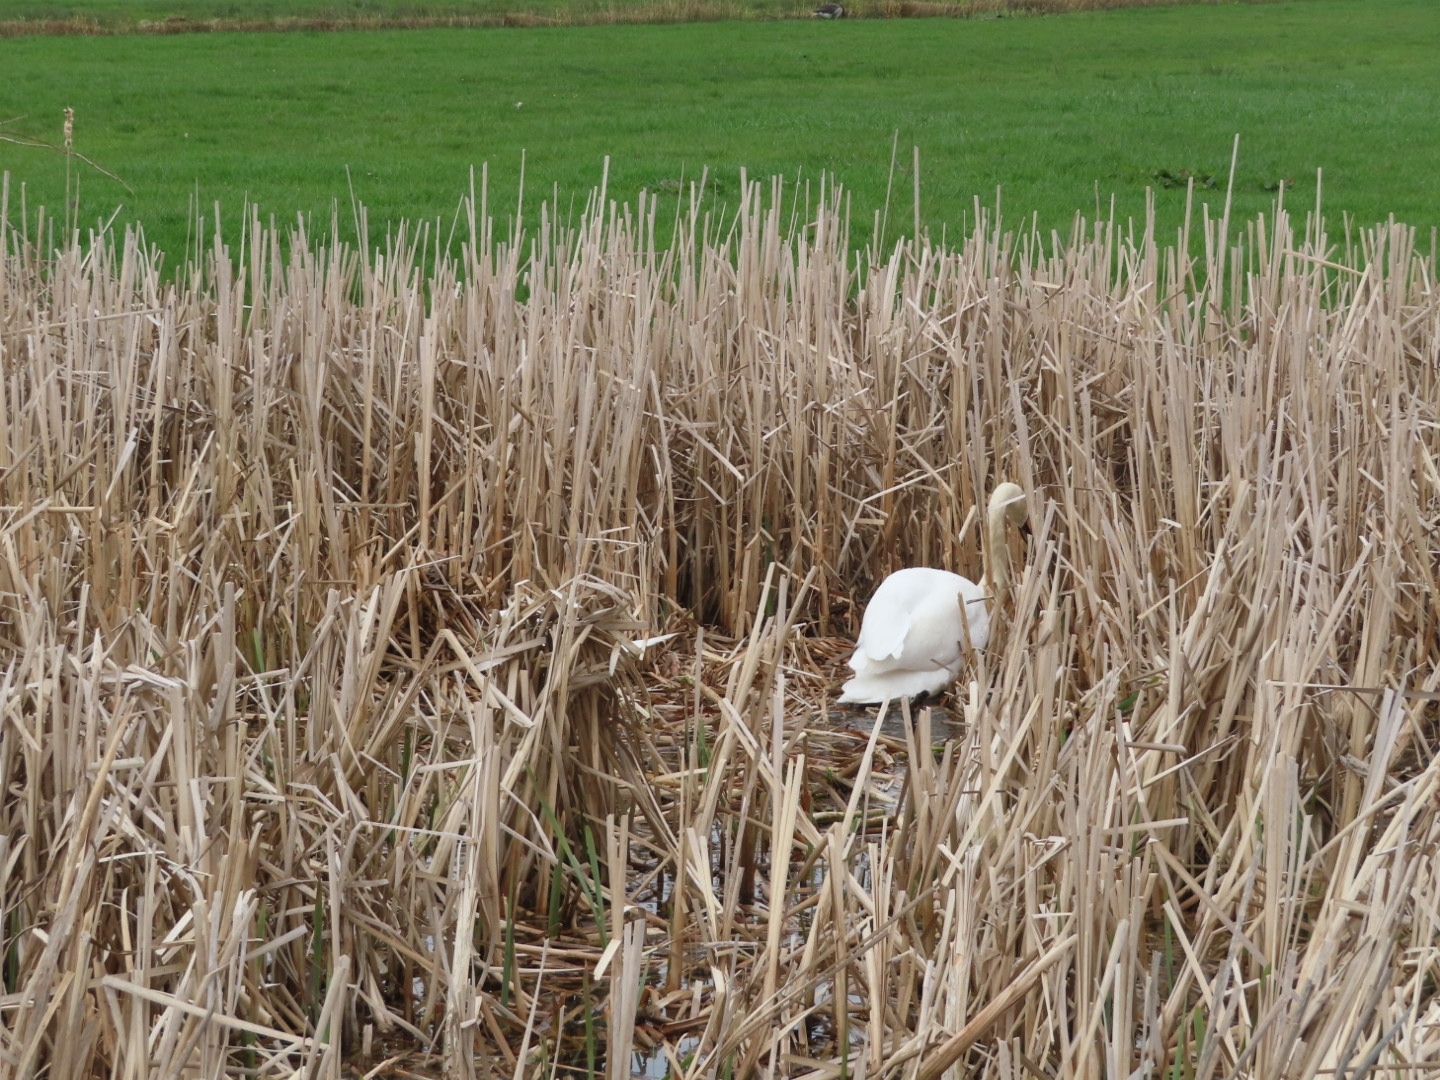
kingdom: Animalia
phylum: Chordata
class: Aves
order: Anseriformes
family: Anatidae
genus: Cygnus
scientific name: Cygnus olor
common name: Mute swan
